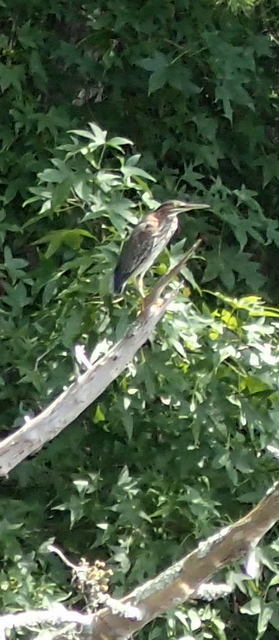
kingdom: Animalia
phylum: Chordata
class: Aves
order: Pelecaniformes
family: Ardeidae
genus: Butorides
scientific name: Butorides virescens
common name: Green heron
